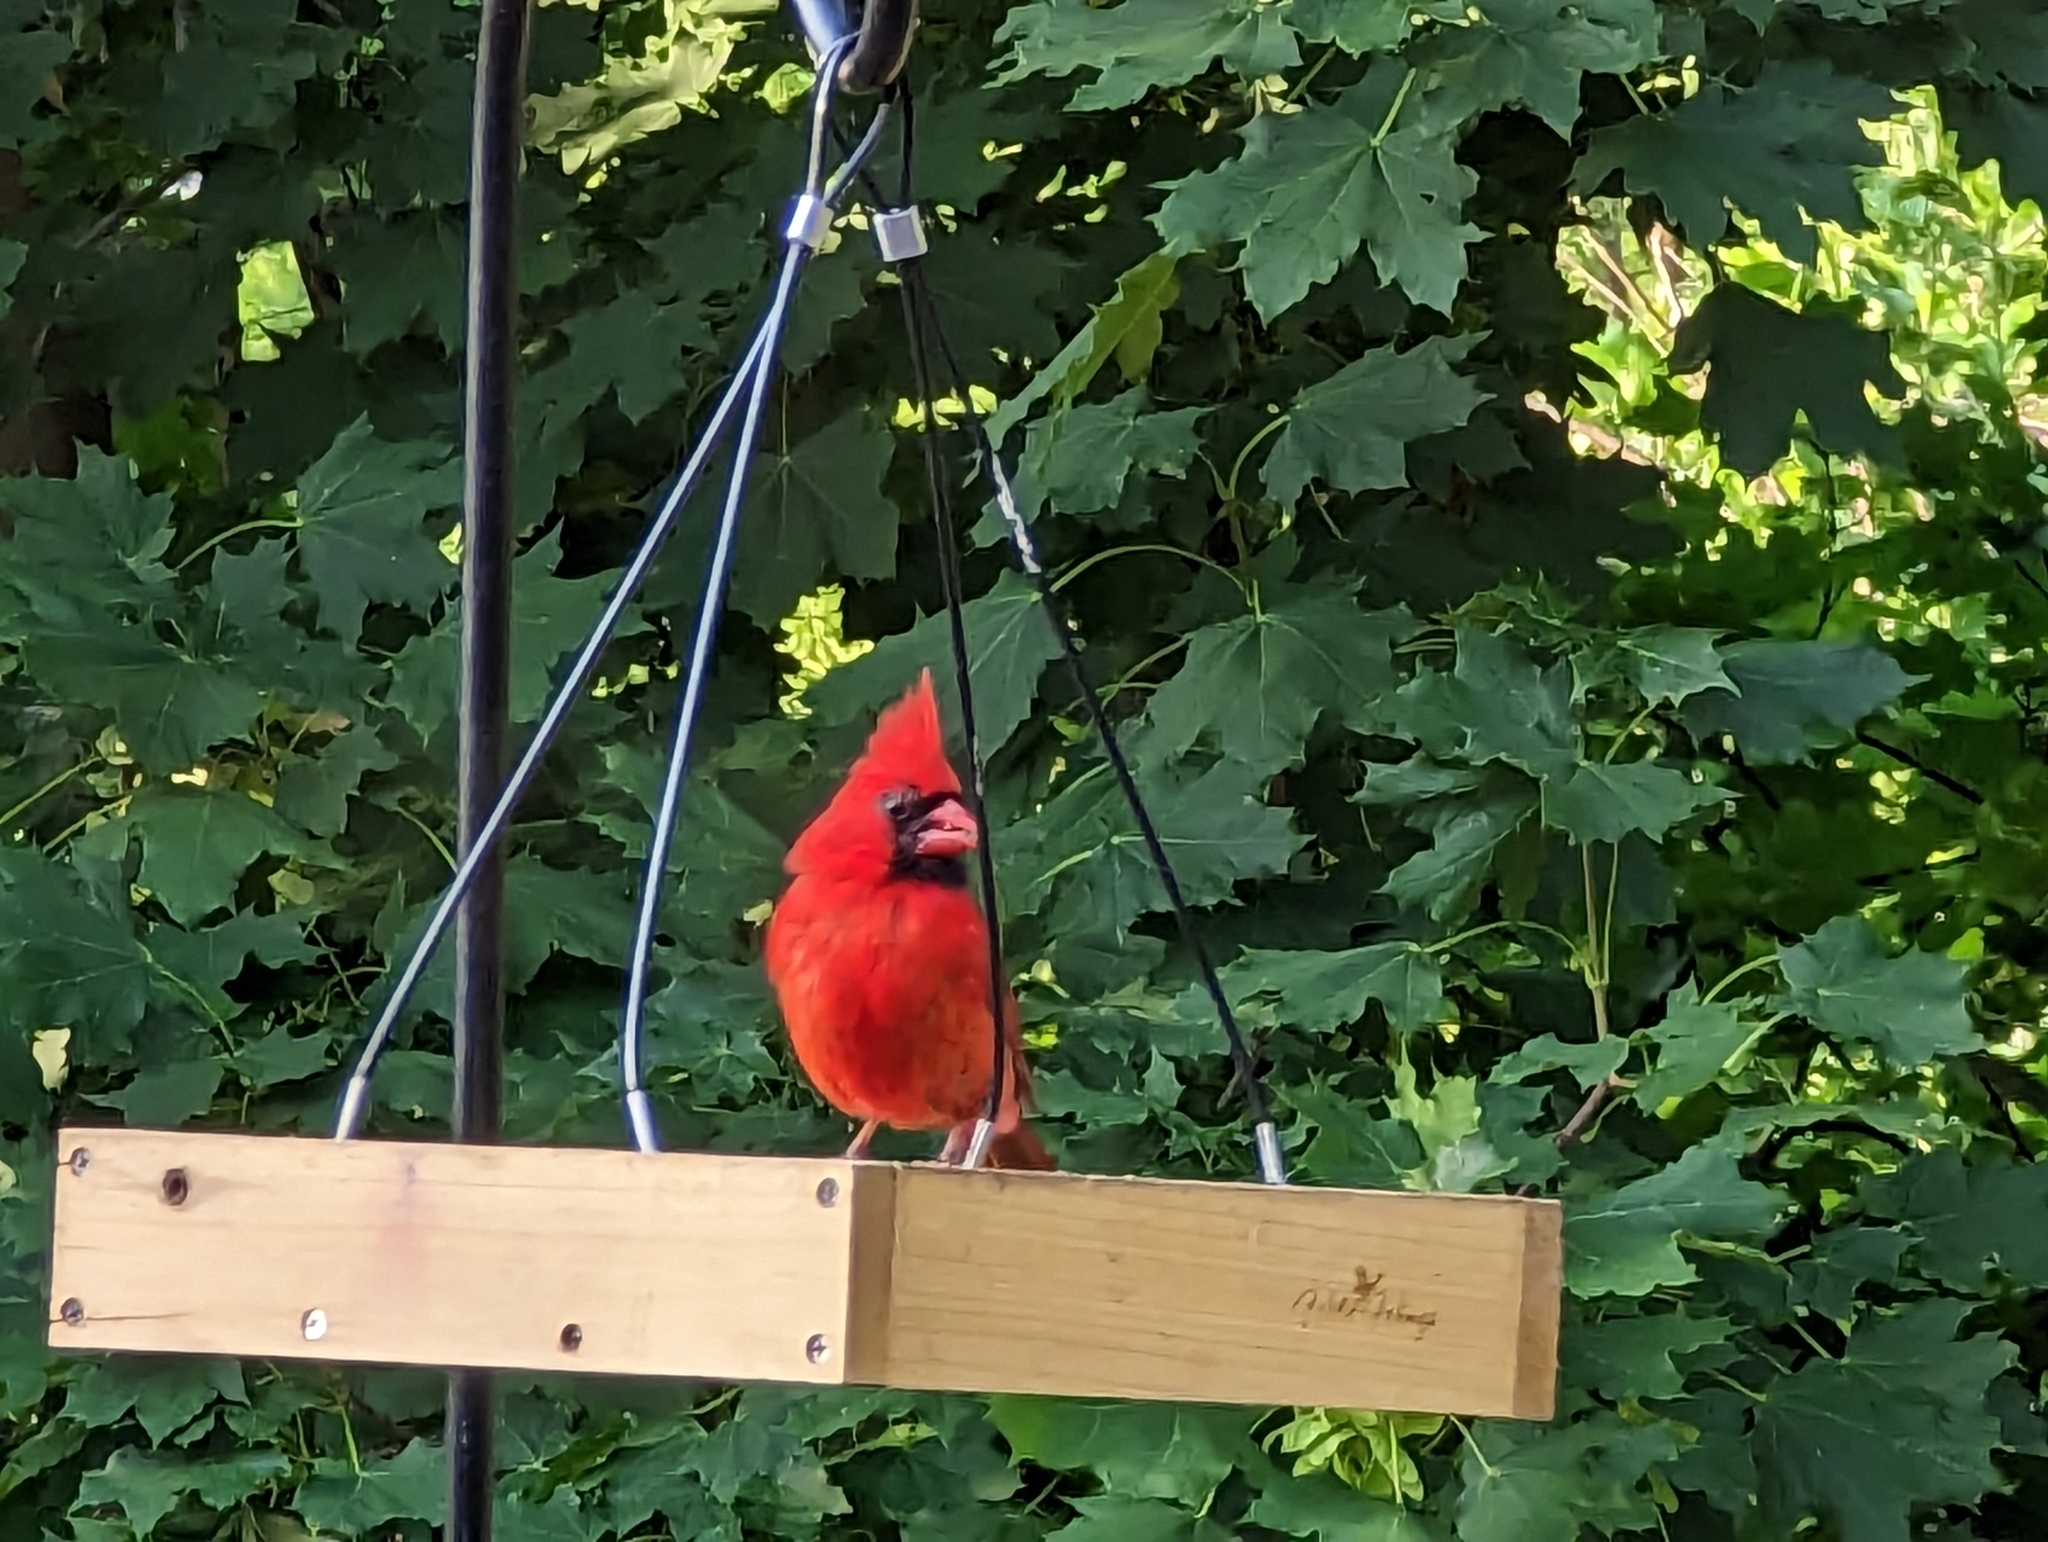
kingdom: Animalia
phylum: Chordata
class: Aves
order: Passeriformes
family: Cardinalidae
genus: Cardinalis
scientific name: Cardinalis cardinalis
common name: Northern cardinal
